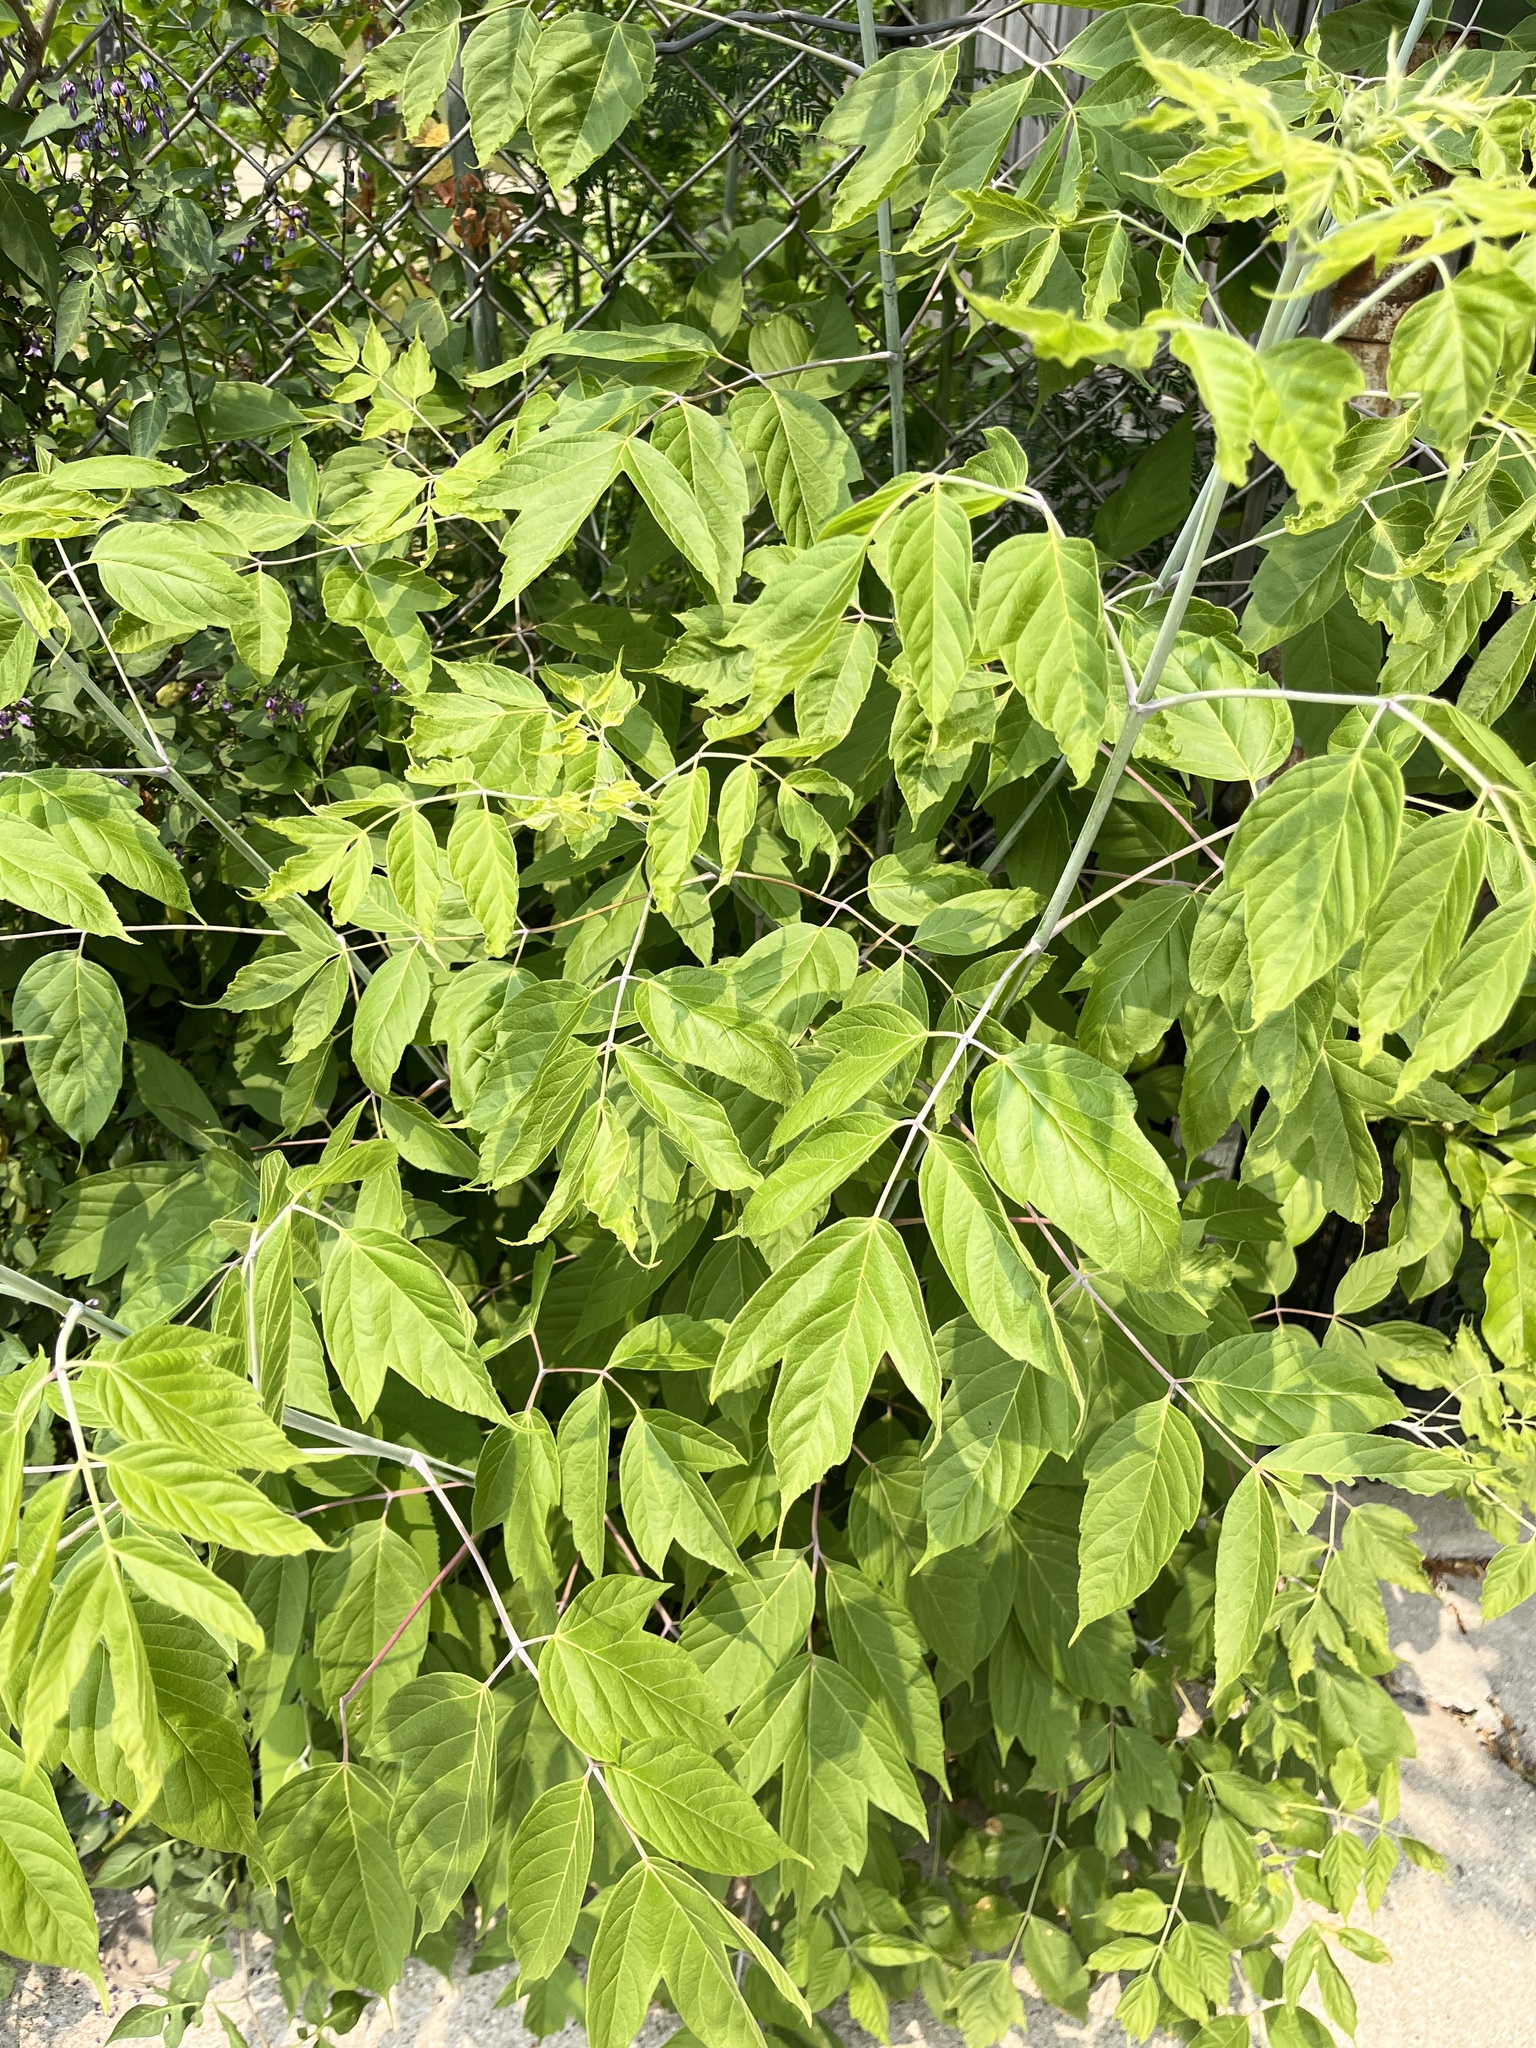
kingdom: Plantae
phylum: Tracheophyta
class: Magnoliopsida
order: Sapindales
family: Sapindaceae
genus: Acer
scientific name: Acer negundo
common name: Ashleaf maple
